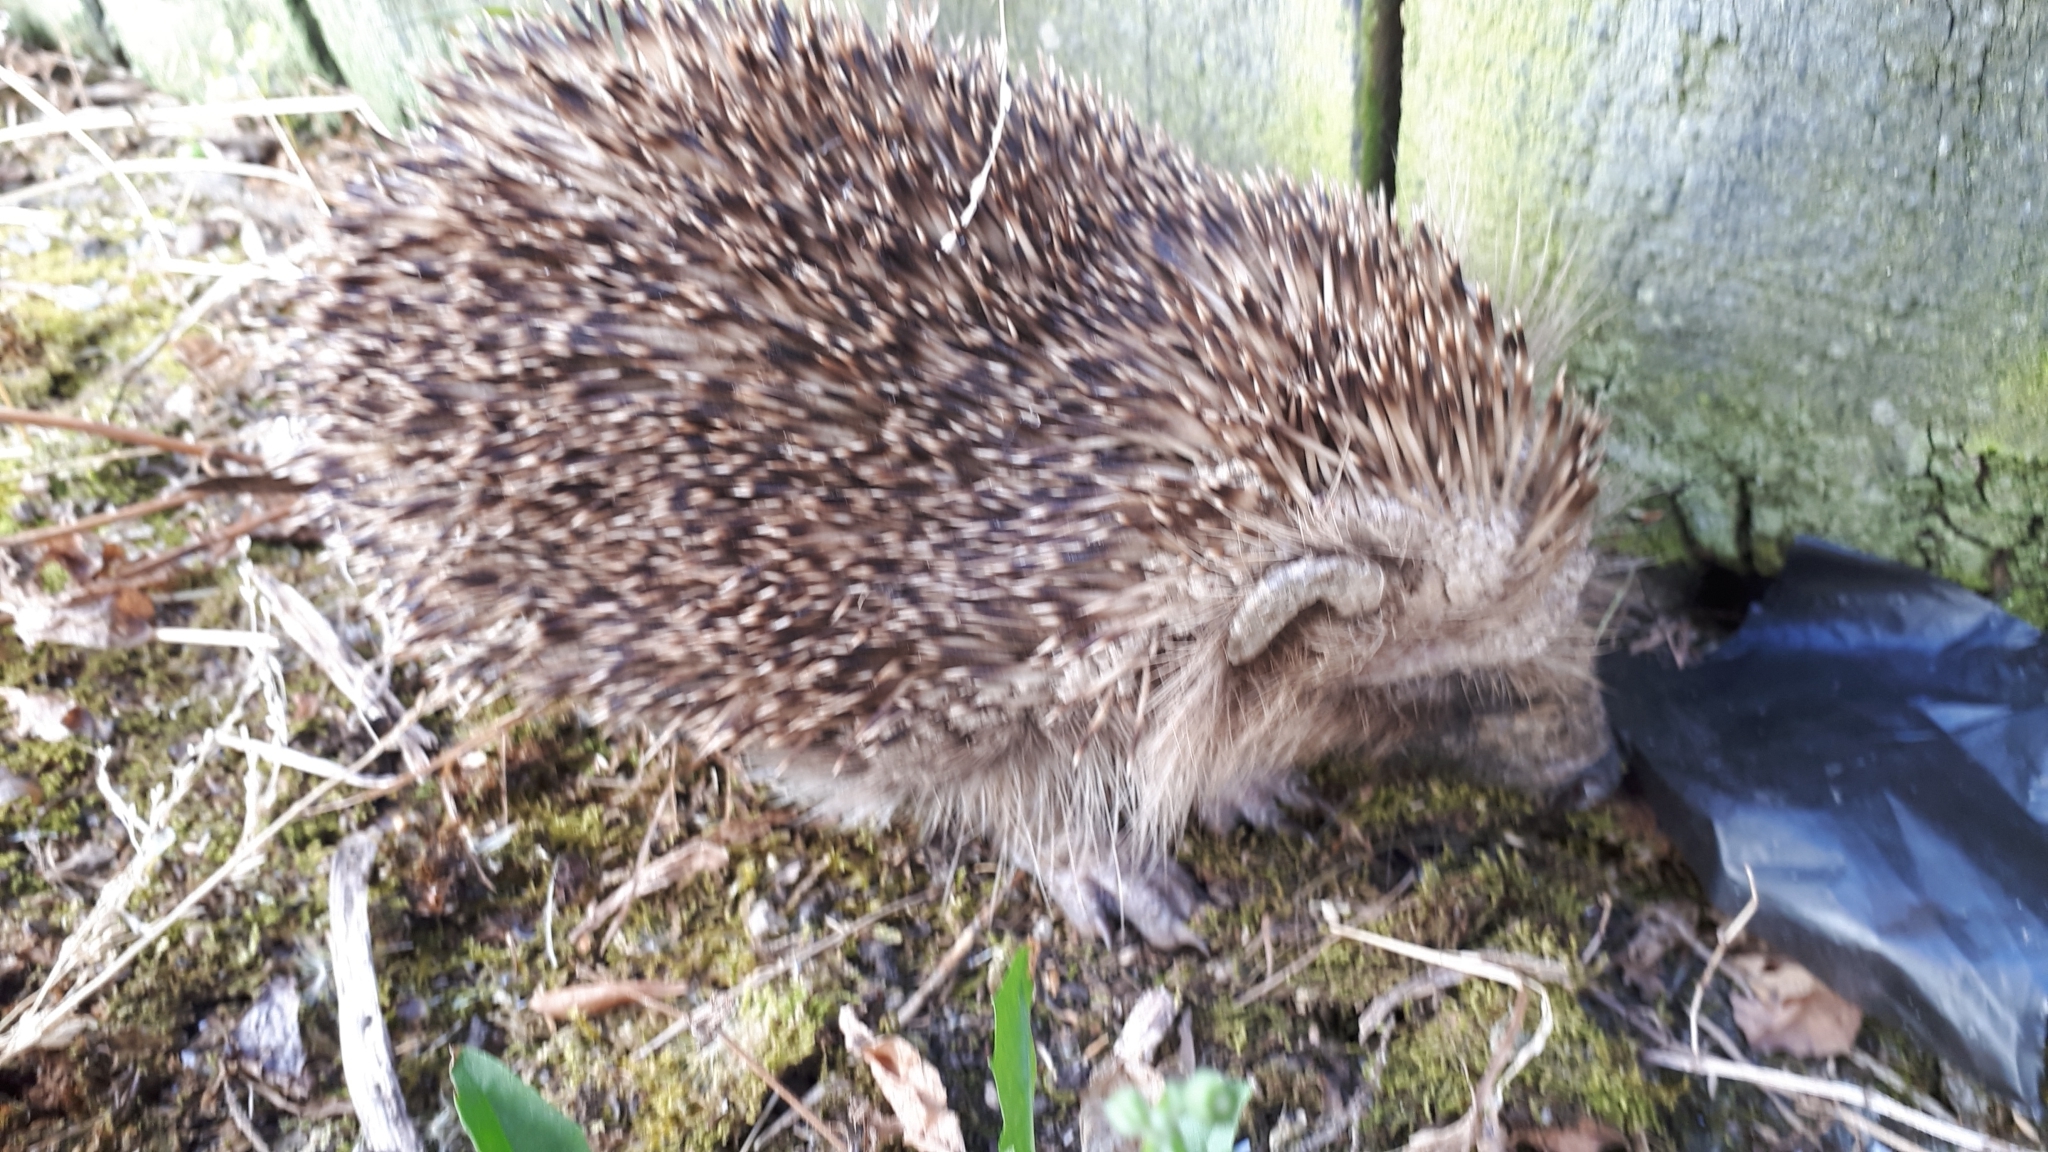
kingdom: Animalia
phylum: Chordata
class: Mammalia
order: Erinaceomorpha
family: Erinaceidae
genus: Erinaceus
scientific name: Erinaceus europaeus
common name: West european hedgehog
